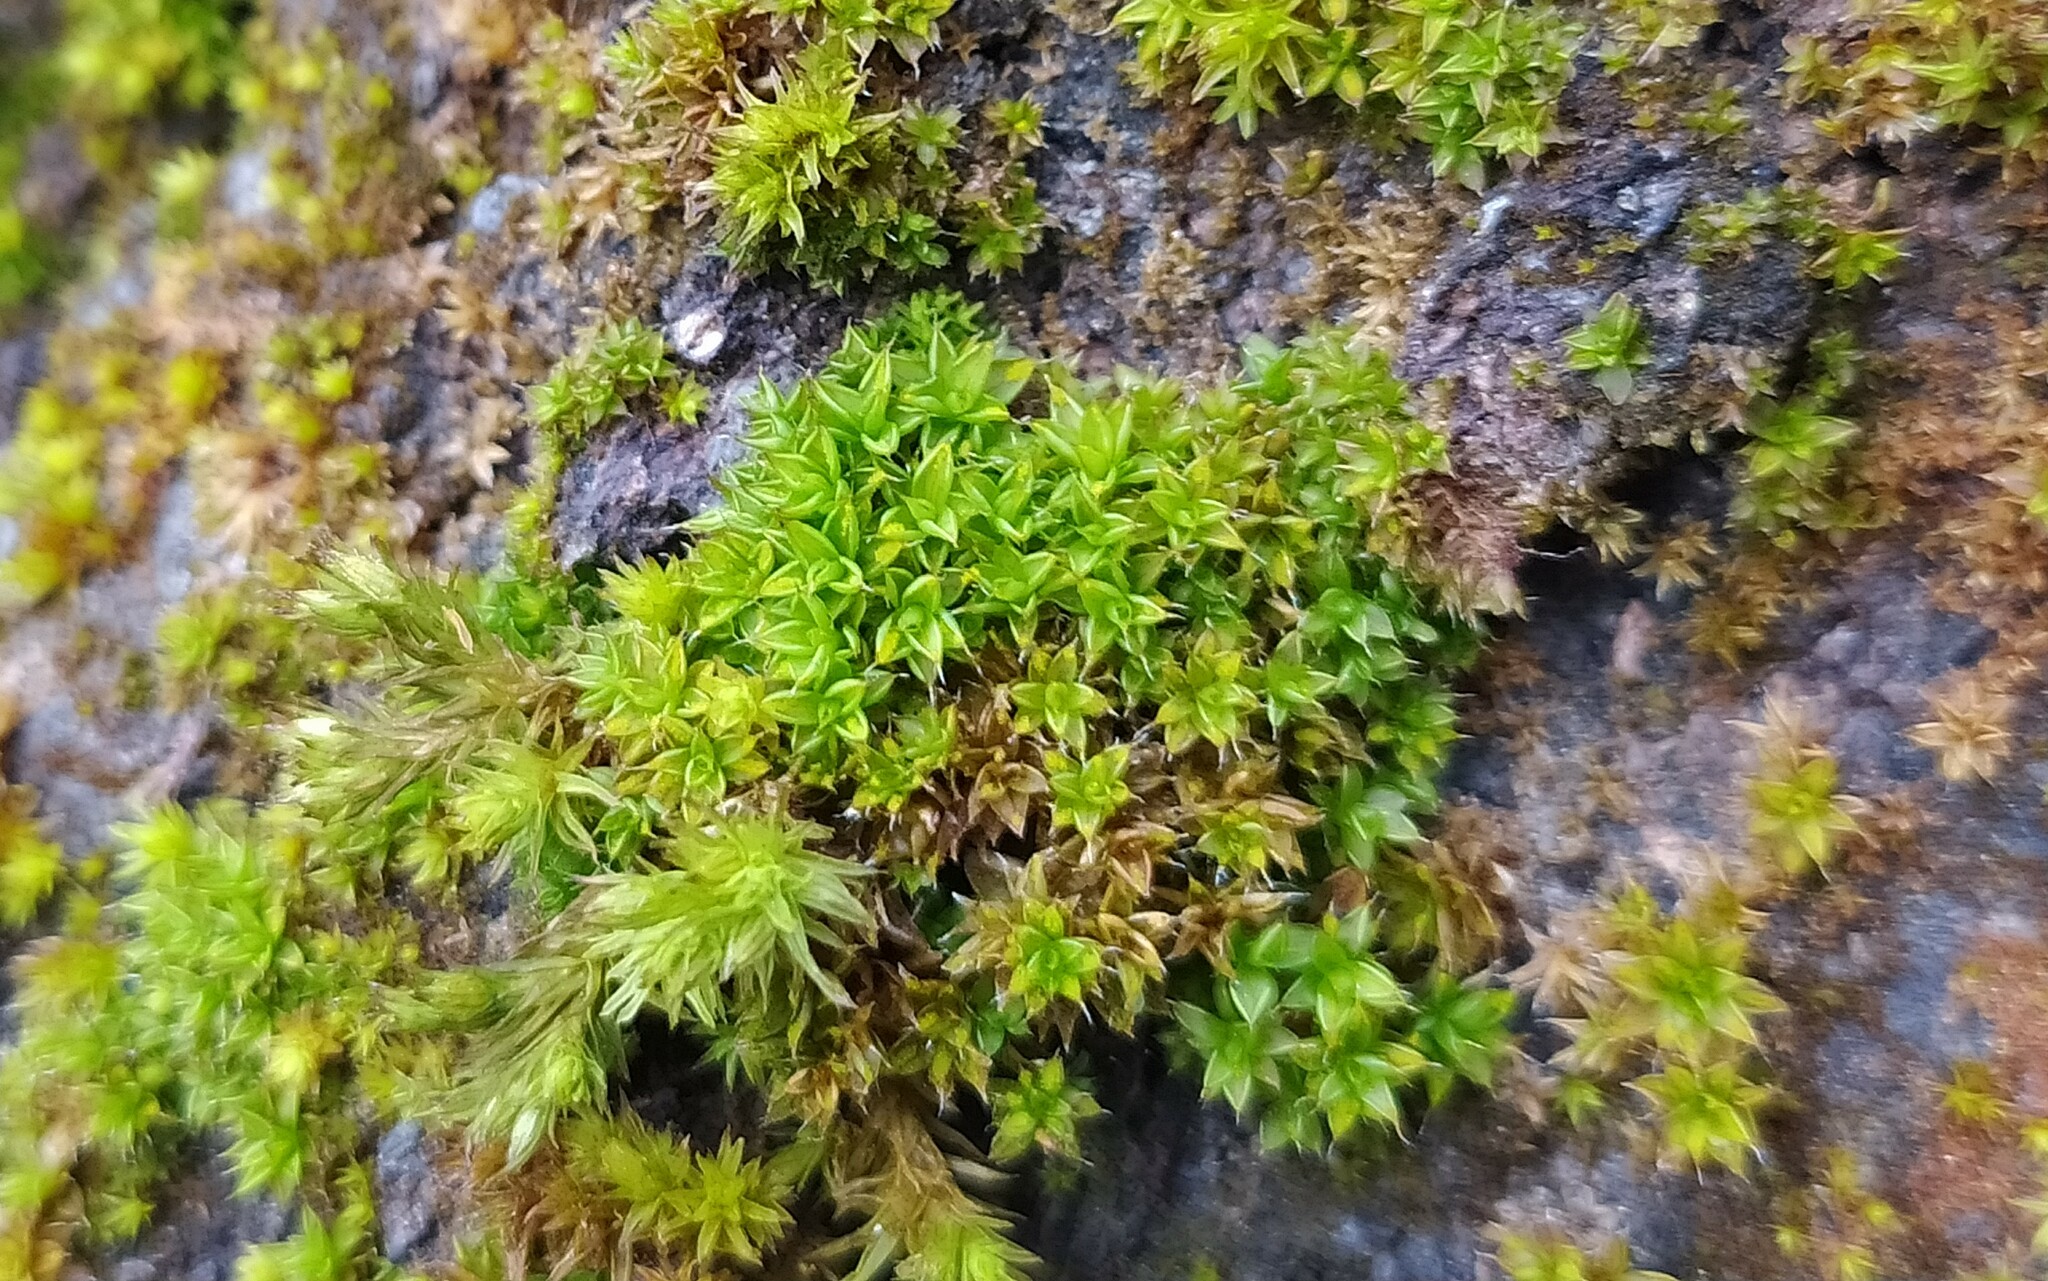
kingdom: Plantae
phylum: Bryophyta
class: Bryopsida
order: Pottiales
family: Pottiaceae
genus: Syntrichia
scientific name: Syntrichia papillosa
